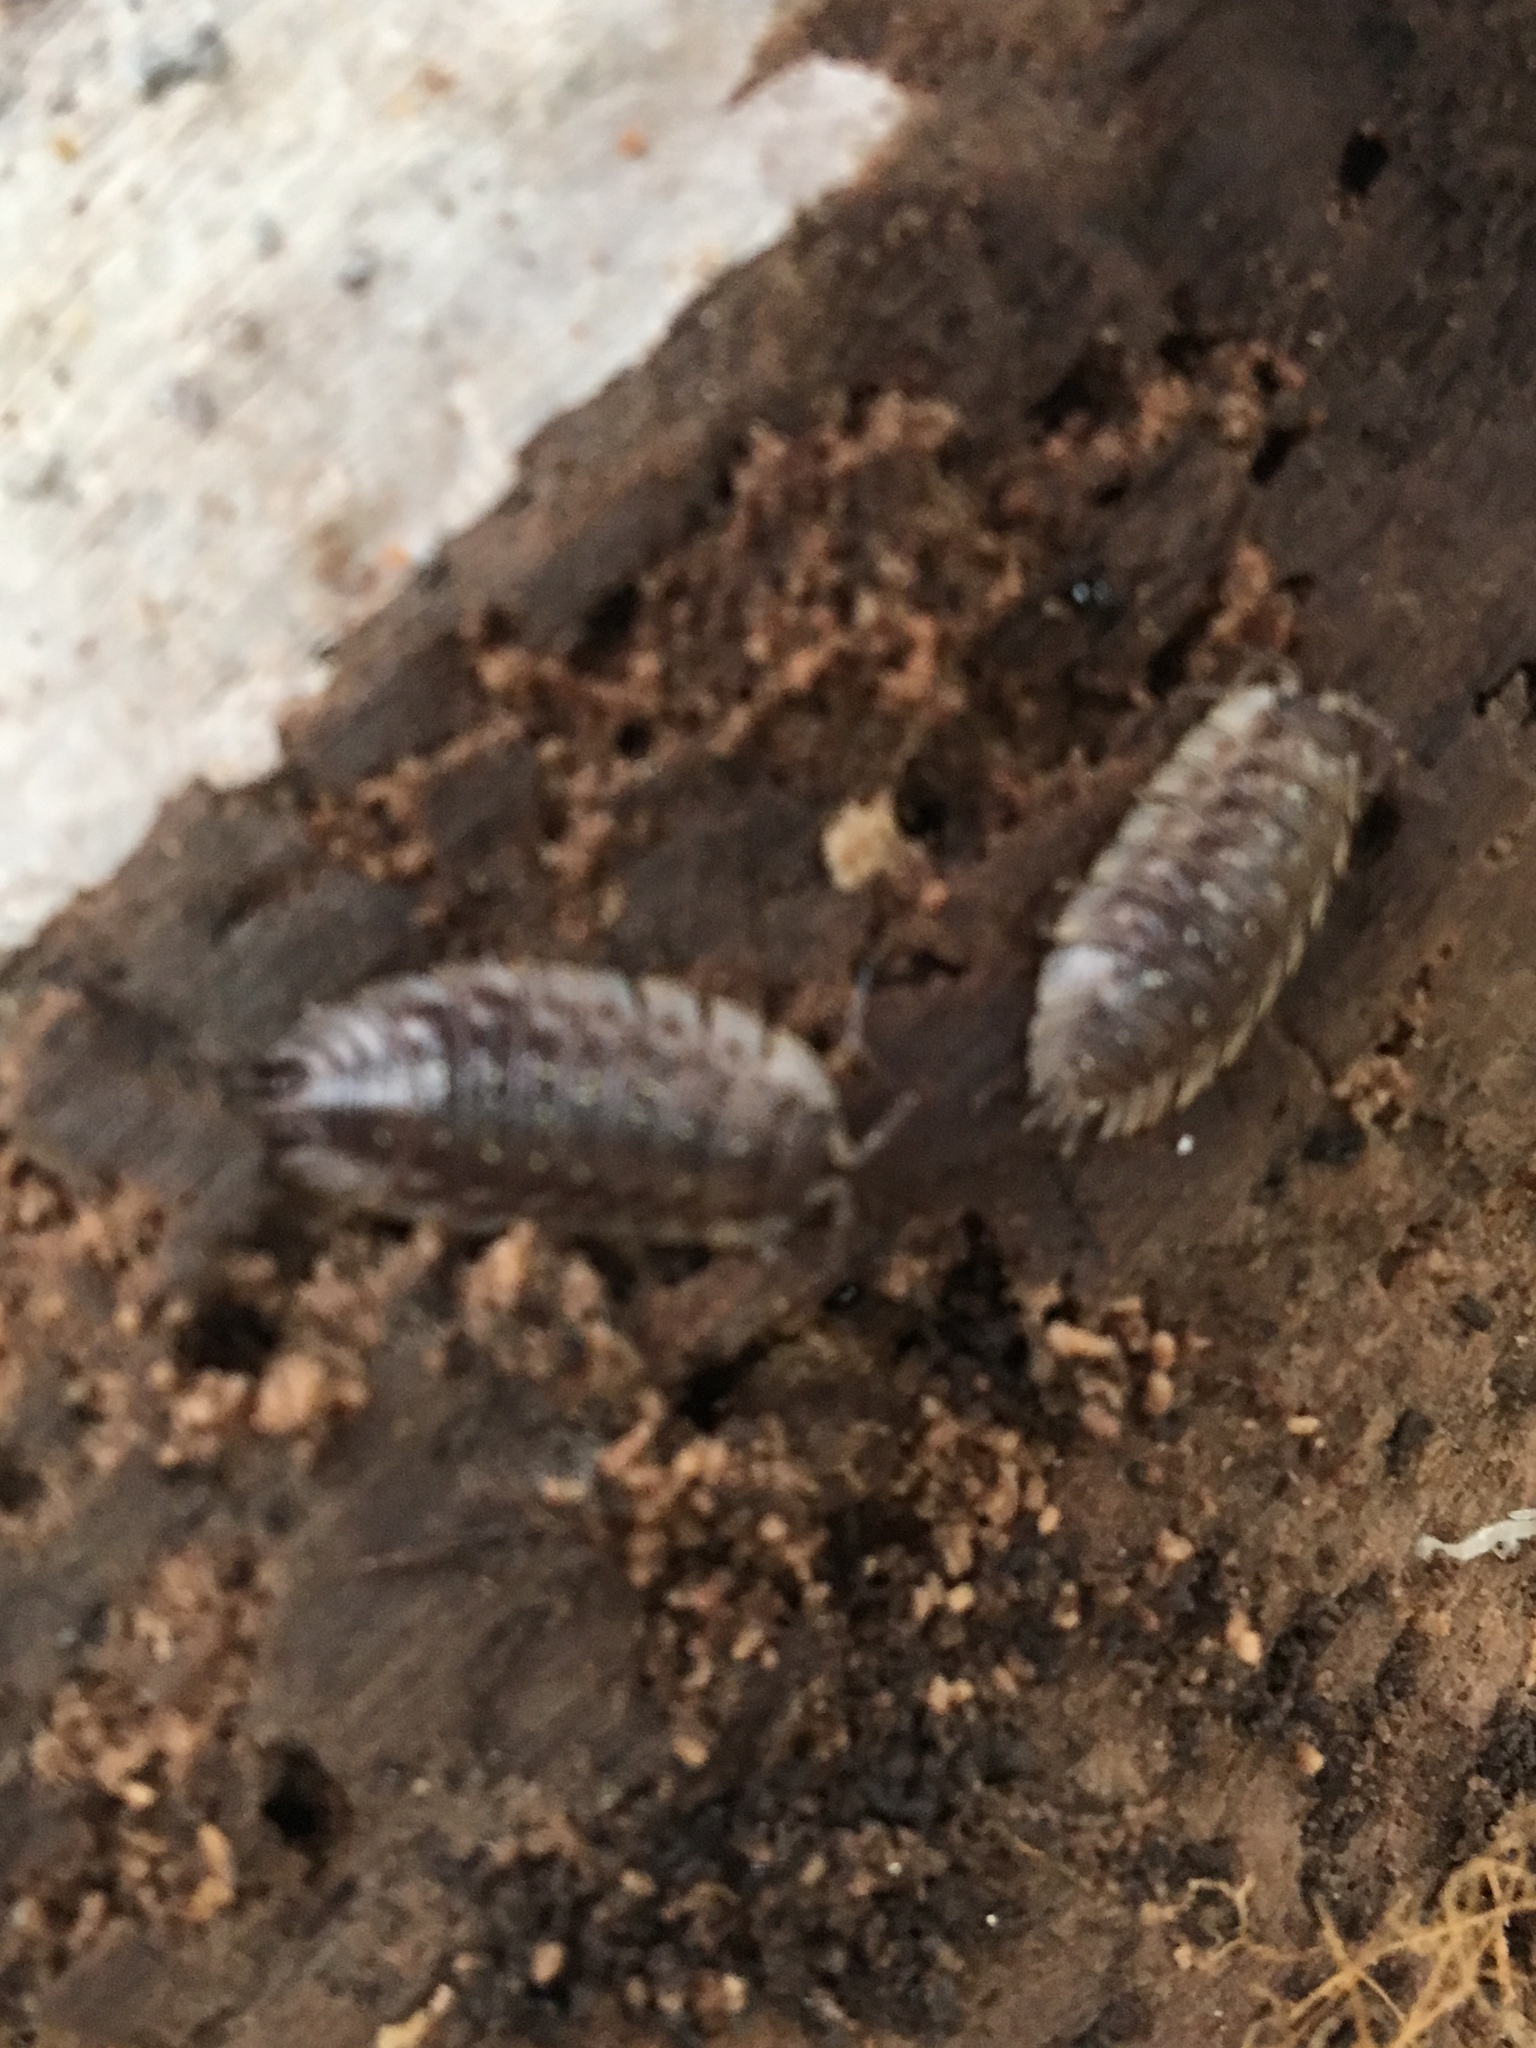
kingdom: Animalia
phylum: Arthropoda
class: Malacostraca
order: Isopoda
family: Oniscidae
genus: Oniscus
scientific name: Oniscus asellus
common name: Common shiny woodlouse
